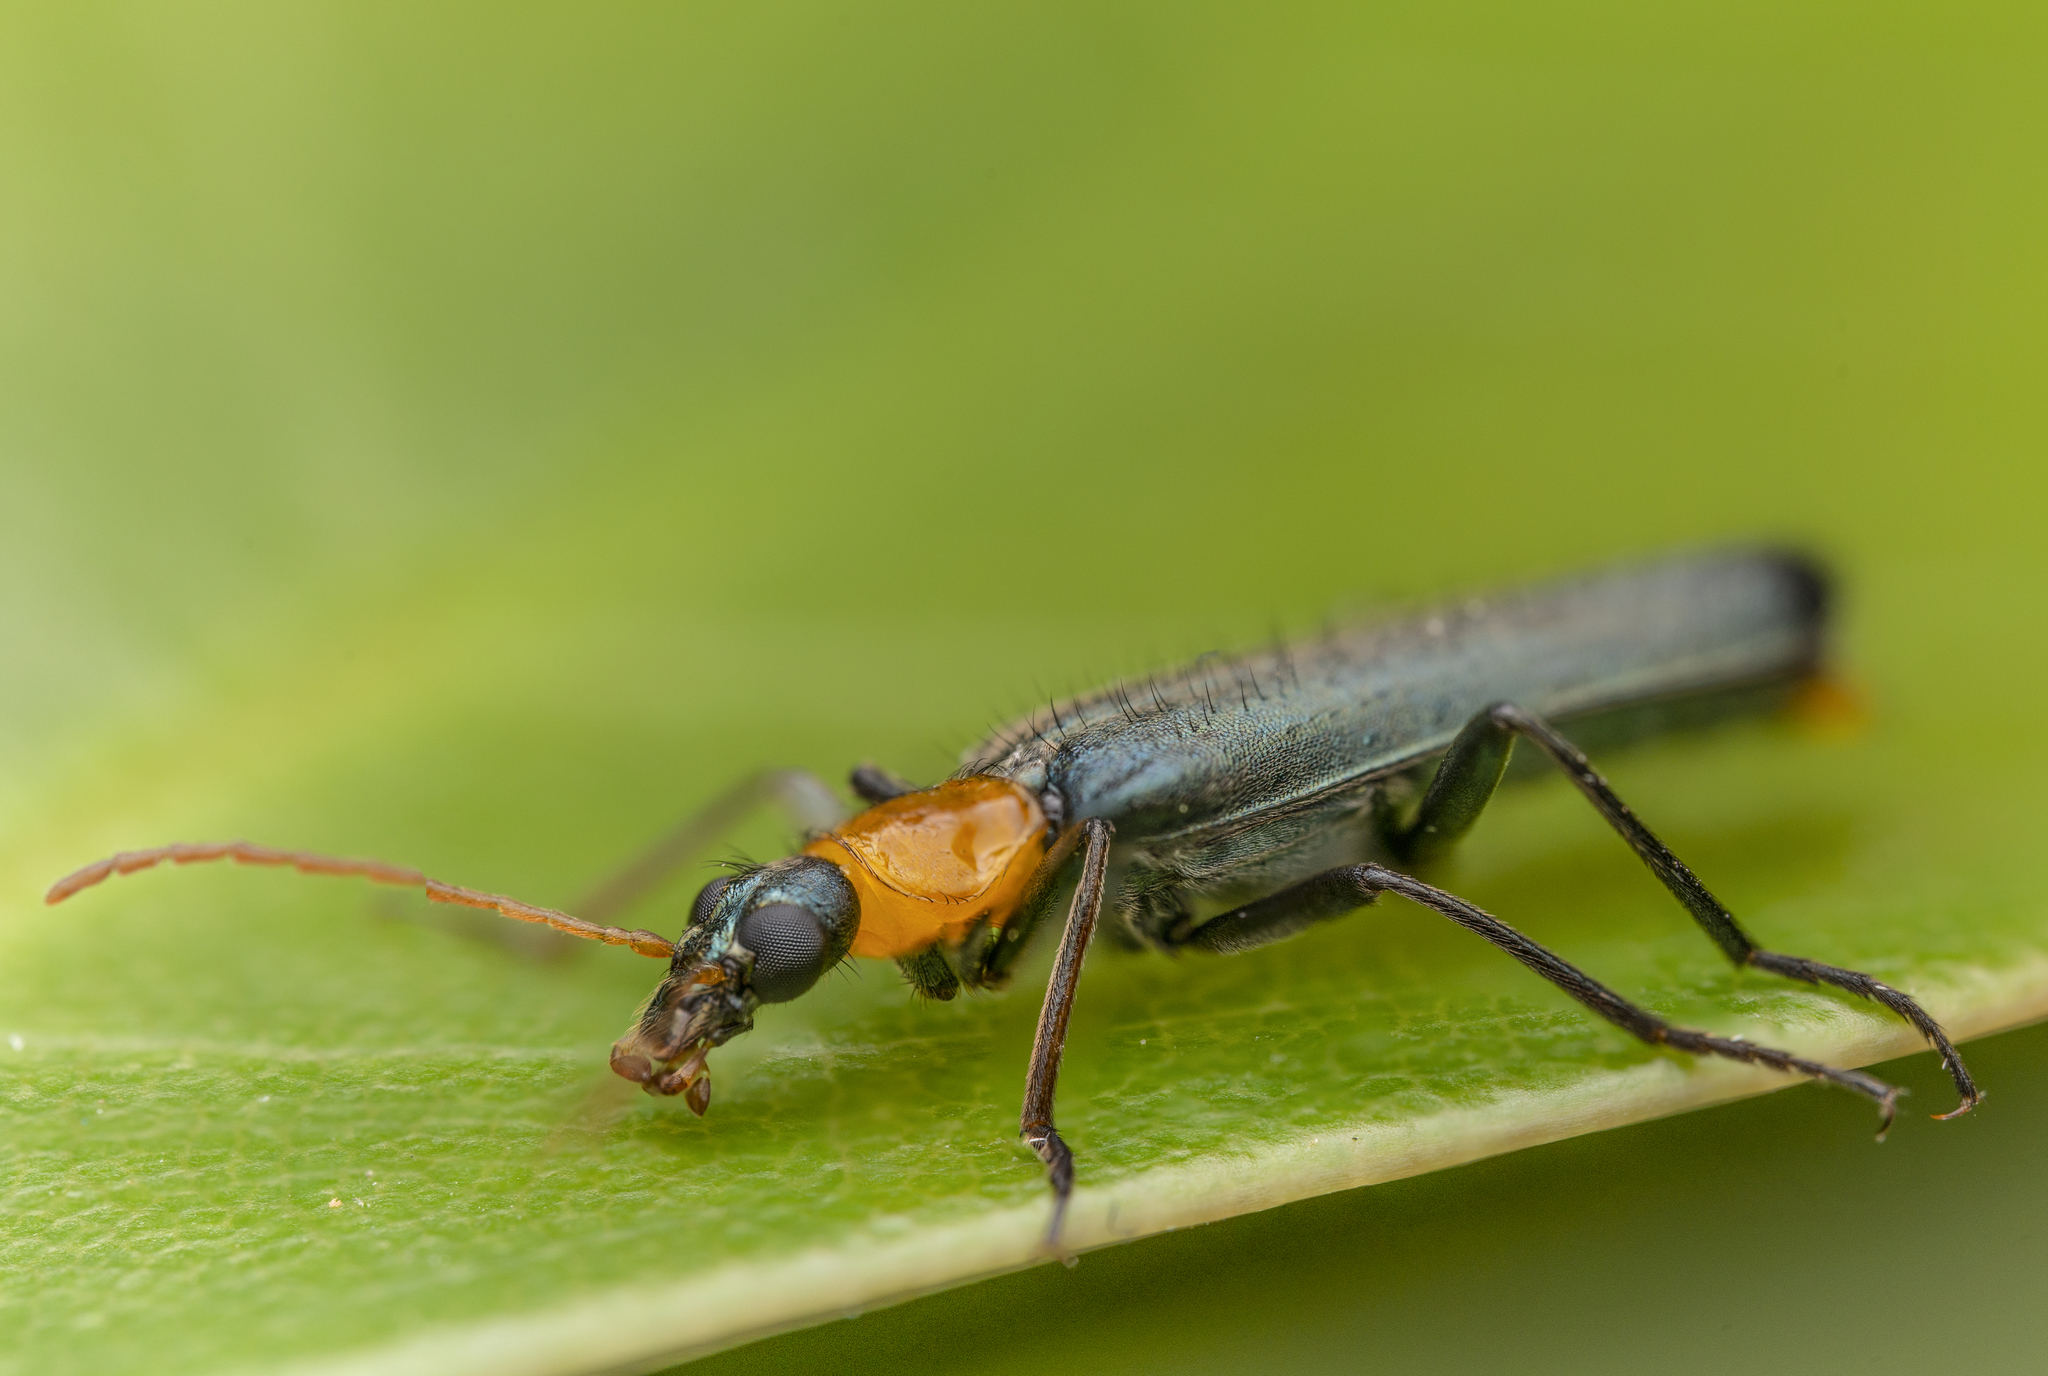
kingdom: Animalia
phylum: Arthropoda
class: Insecta
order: Coleoptera
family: Prionoceridae
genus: Idgia
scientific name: Idgia flavicollis
